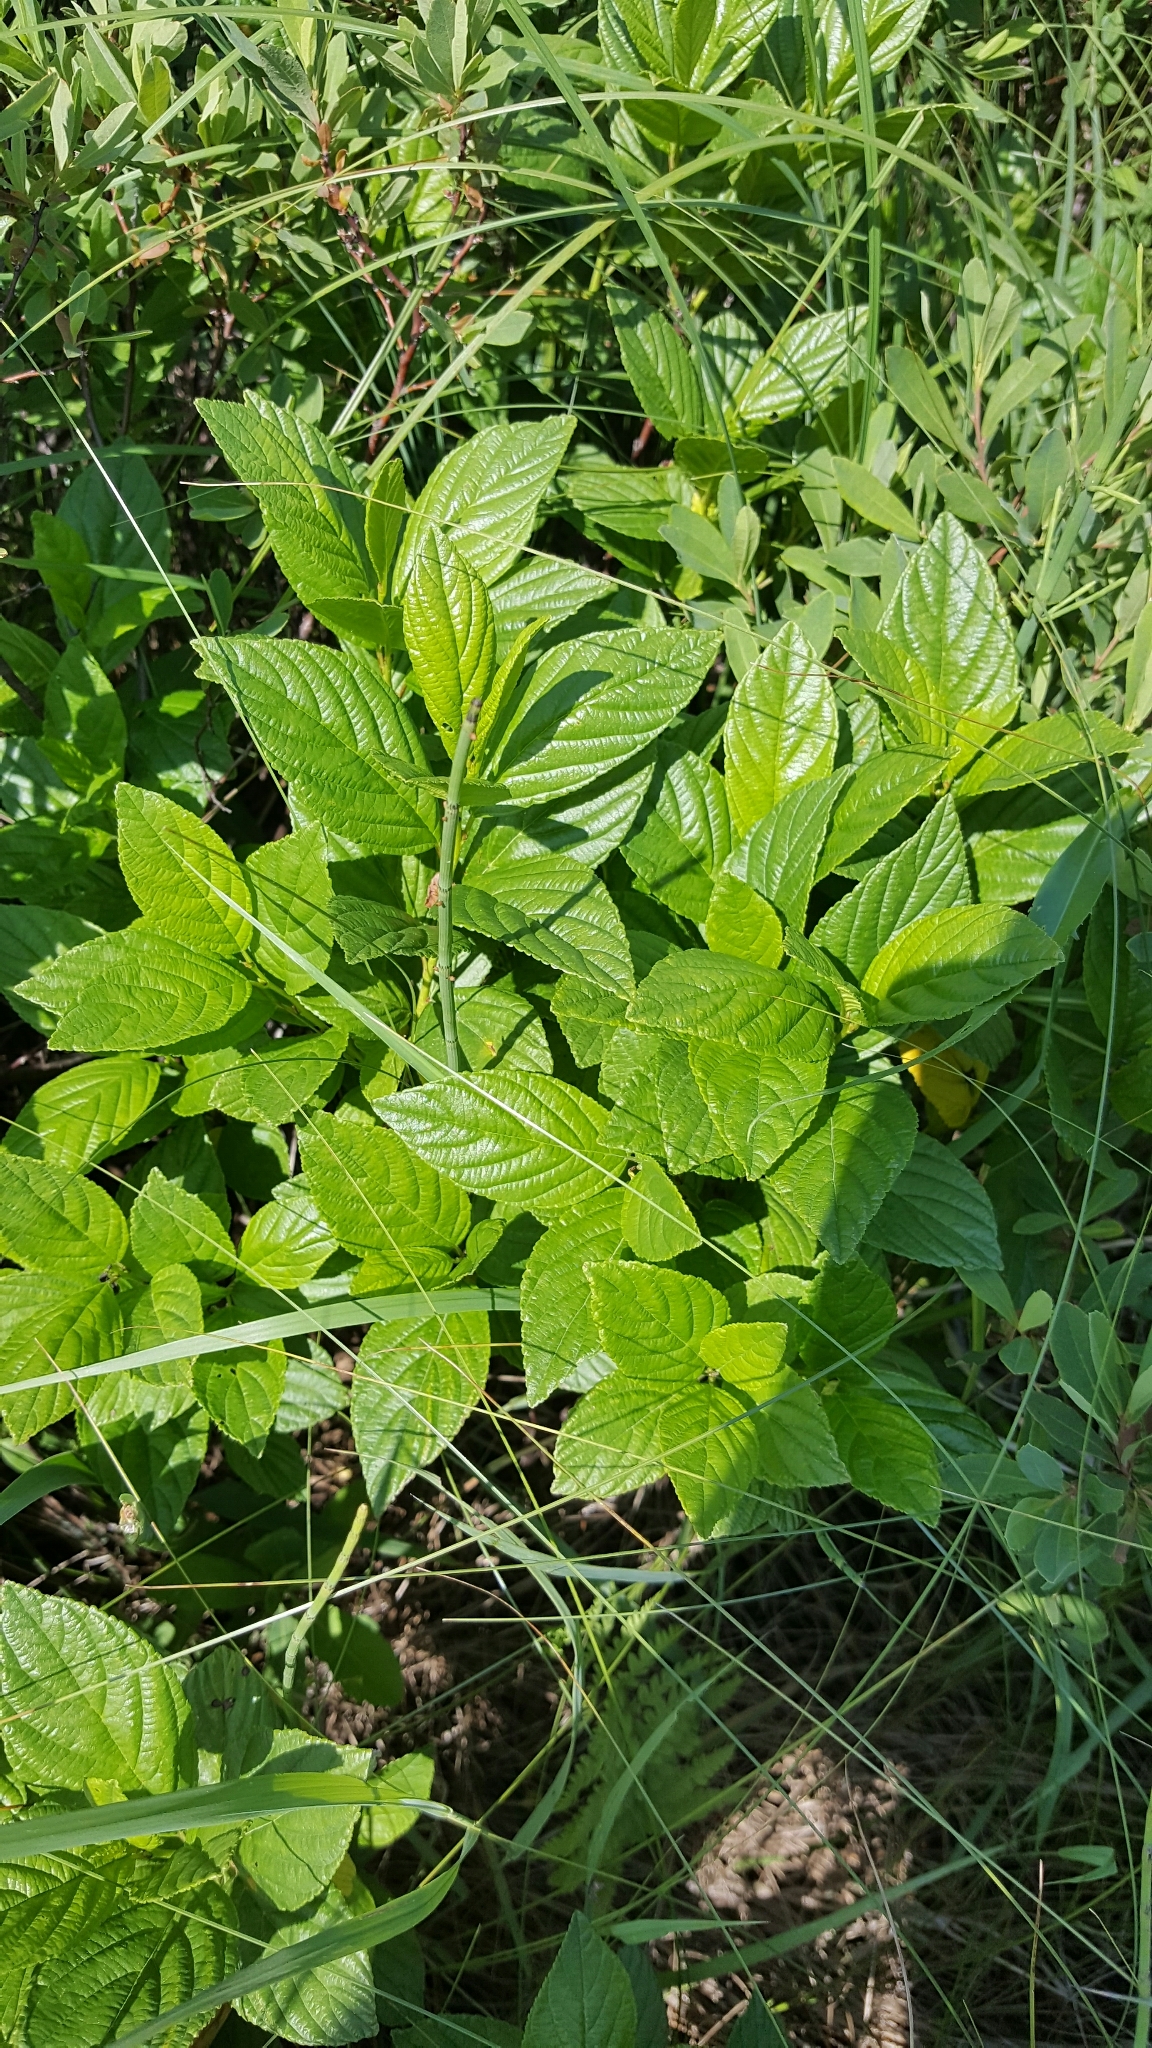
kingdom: Plantae
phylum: Tracheophyta
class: Magnoliopsida
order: Rosales
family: Rhamnaceae
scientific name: Rhamnaceae
